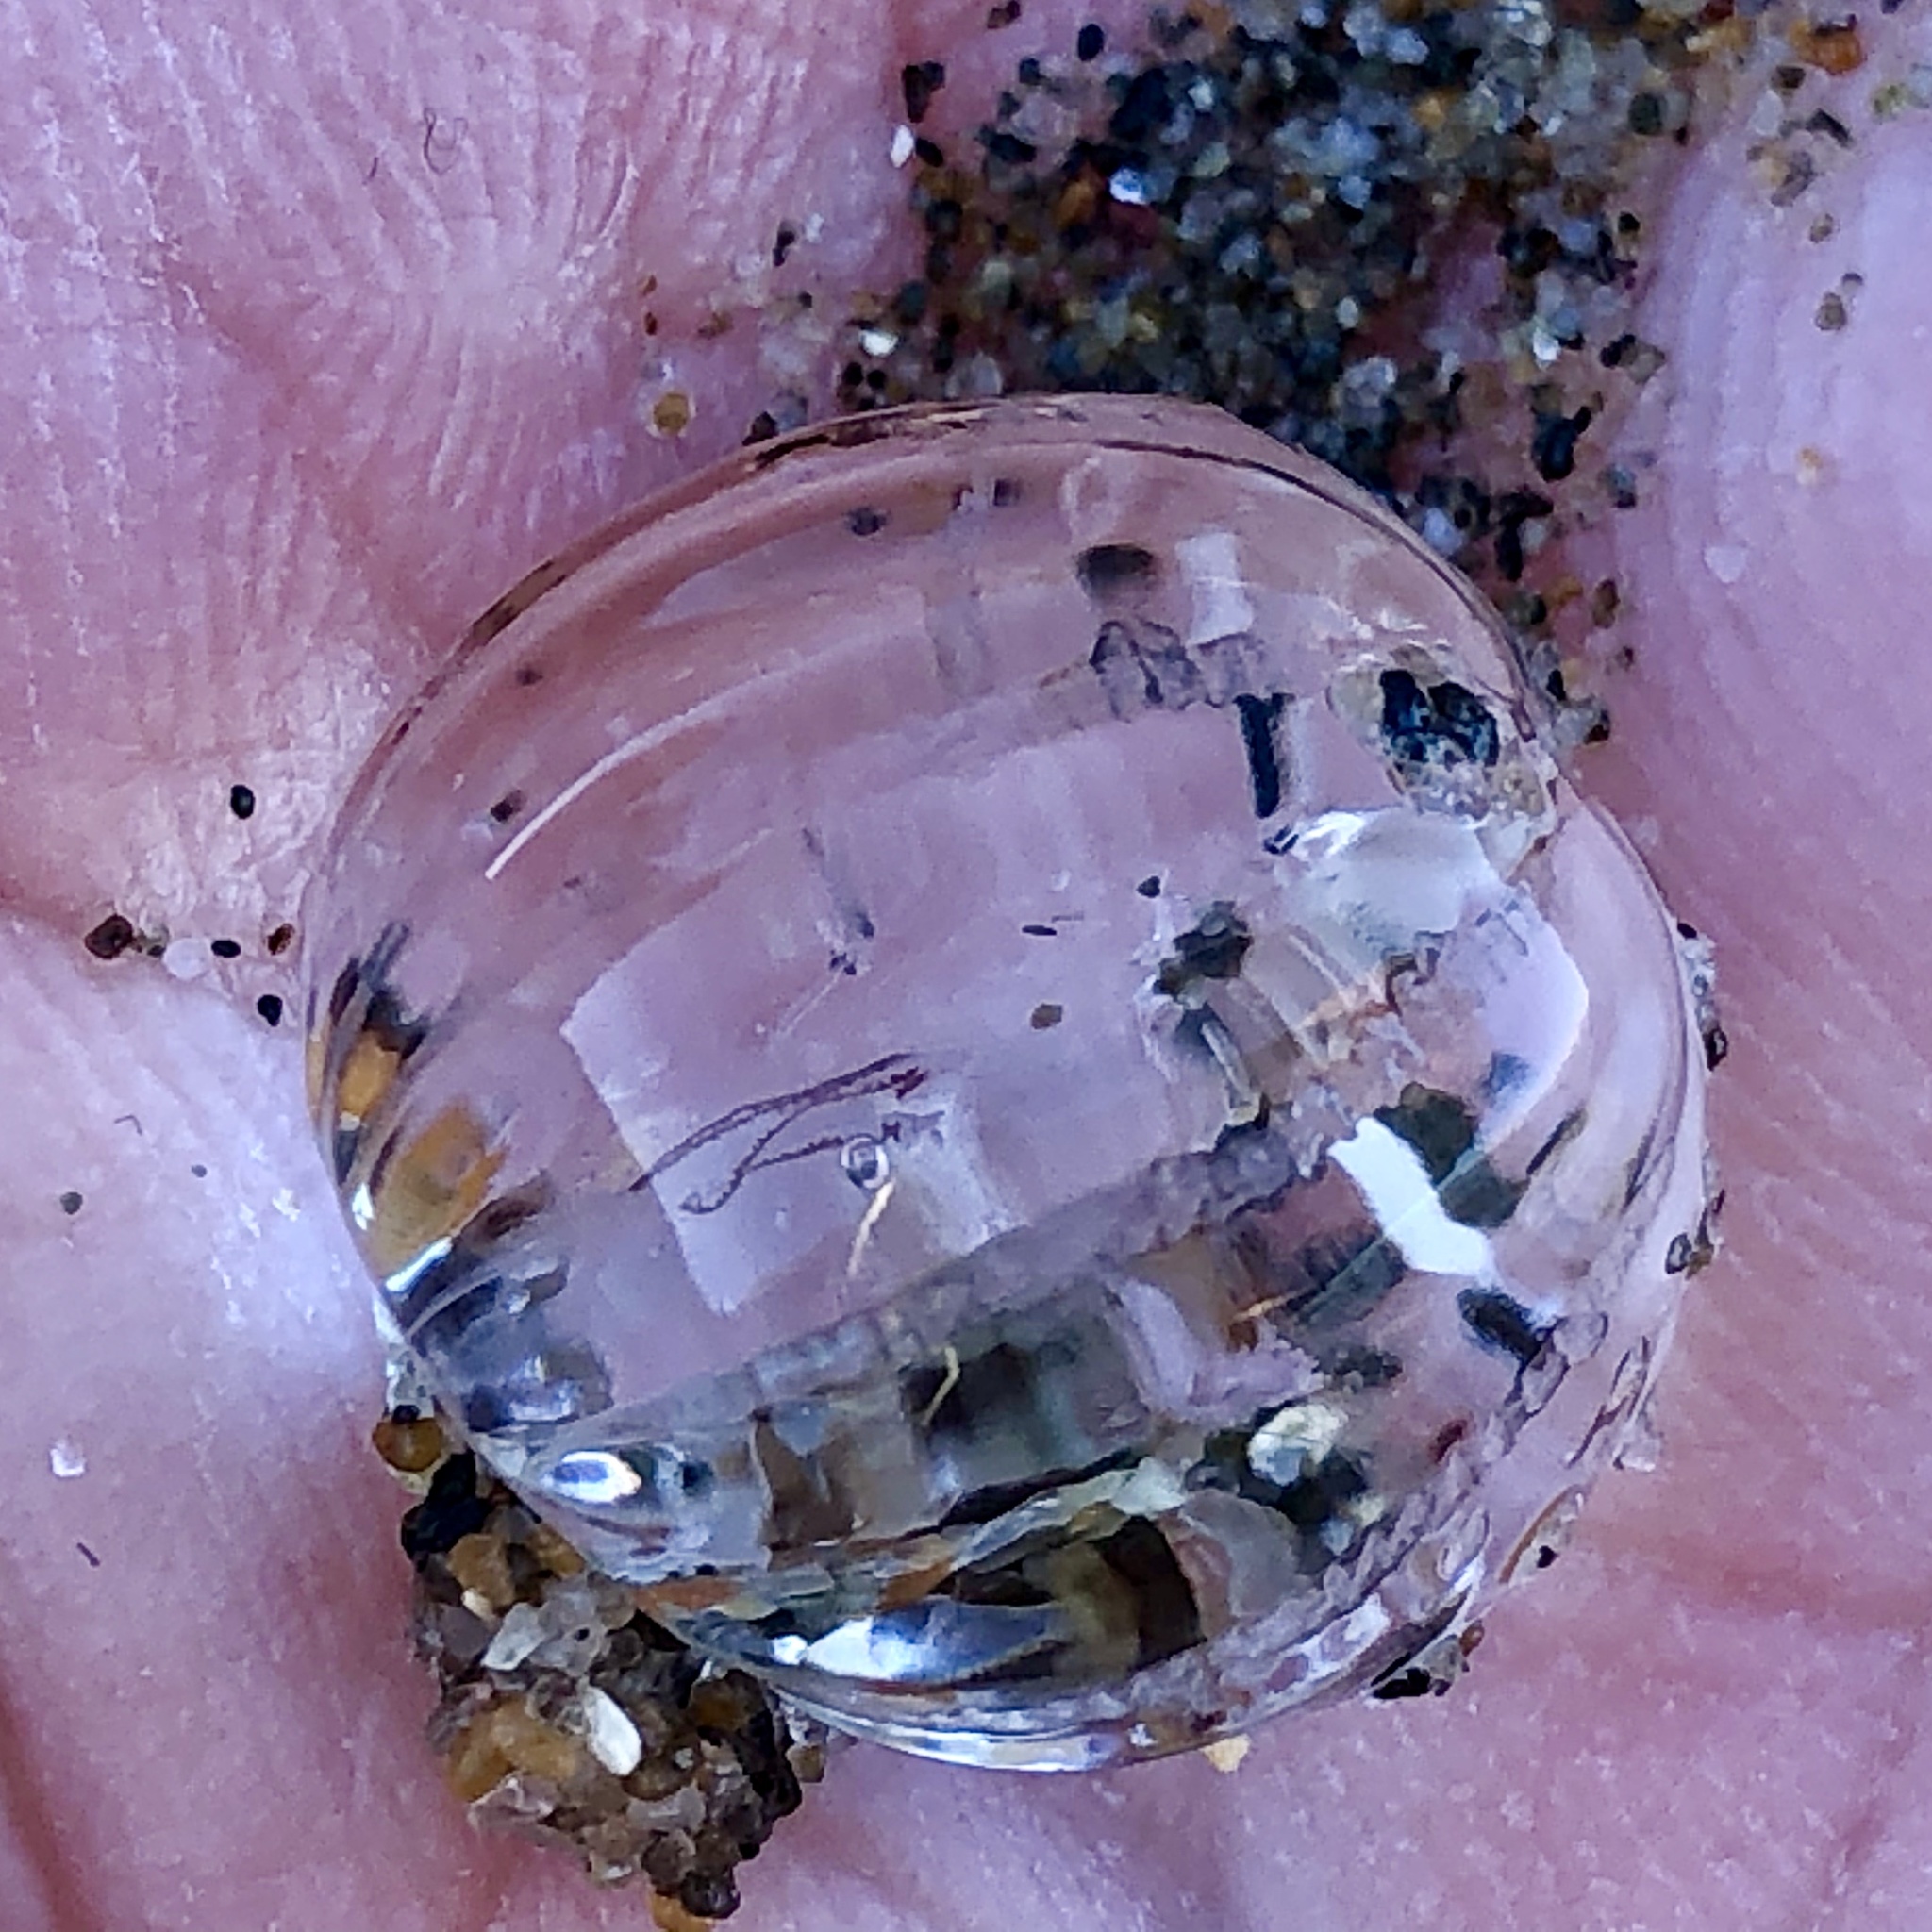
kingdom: Animalia
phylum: Ctenophora
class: Tentaculata
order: Cydippida
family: Pleurobrachiidae
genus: Pleurobrachia
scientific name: Pleurobrachia bachei
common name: Pacific sea gooseberry
